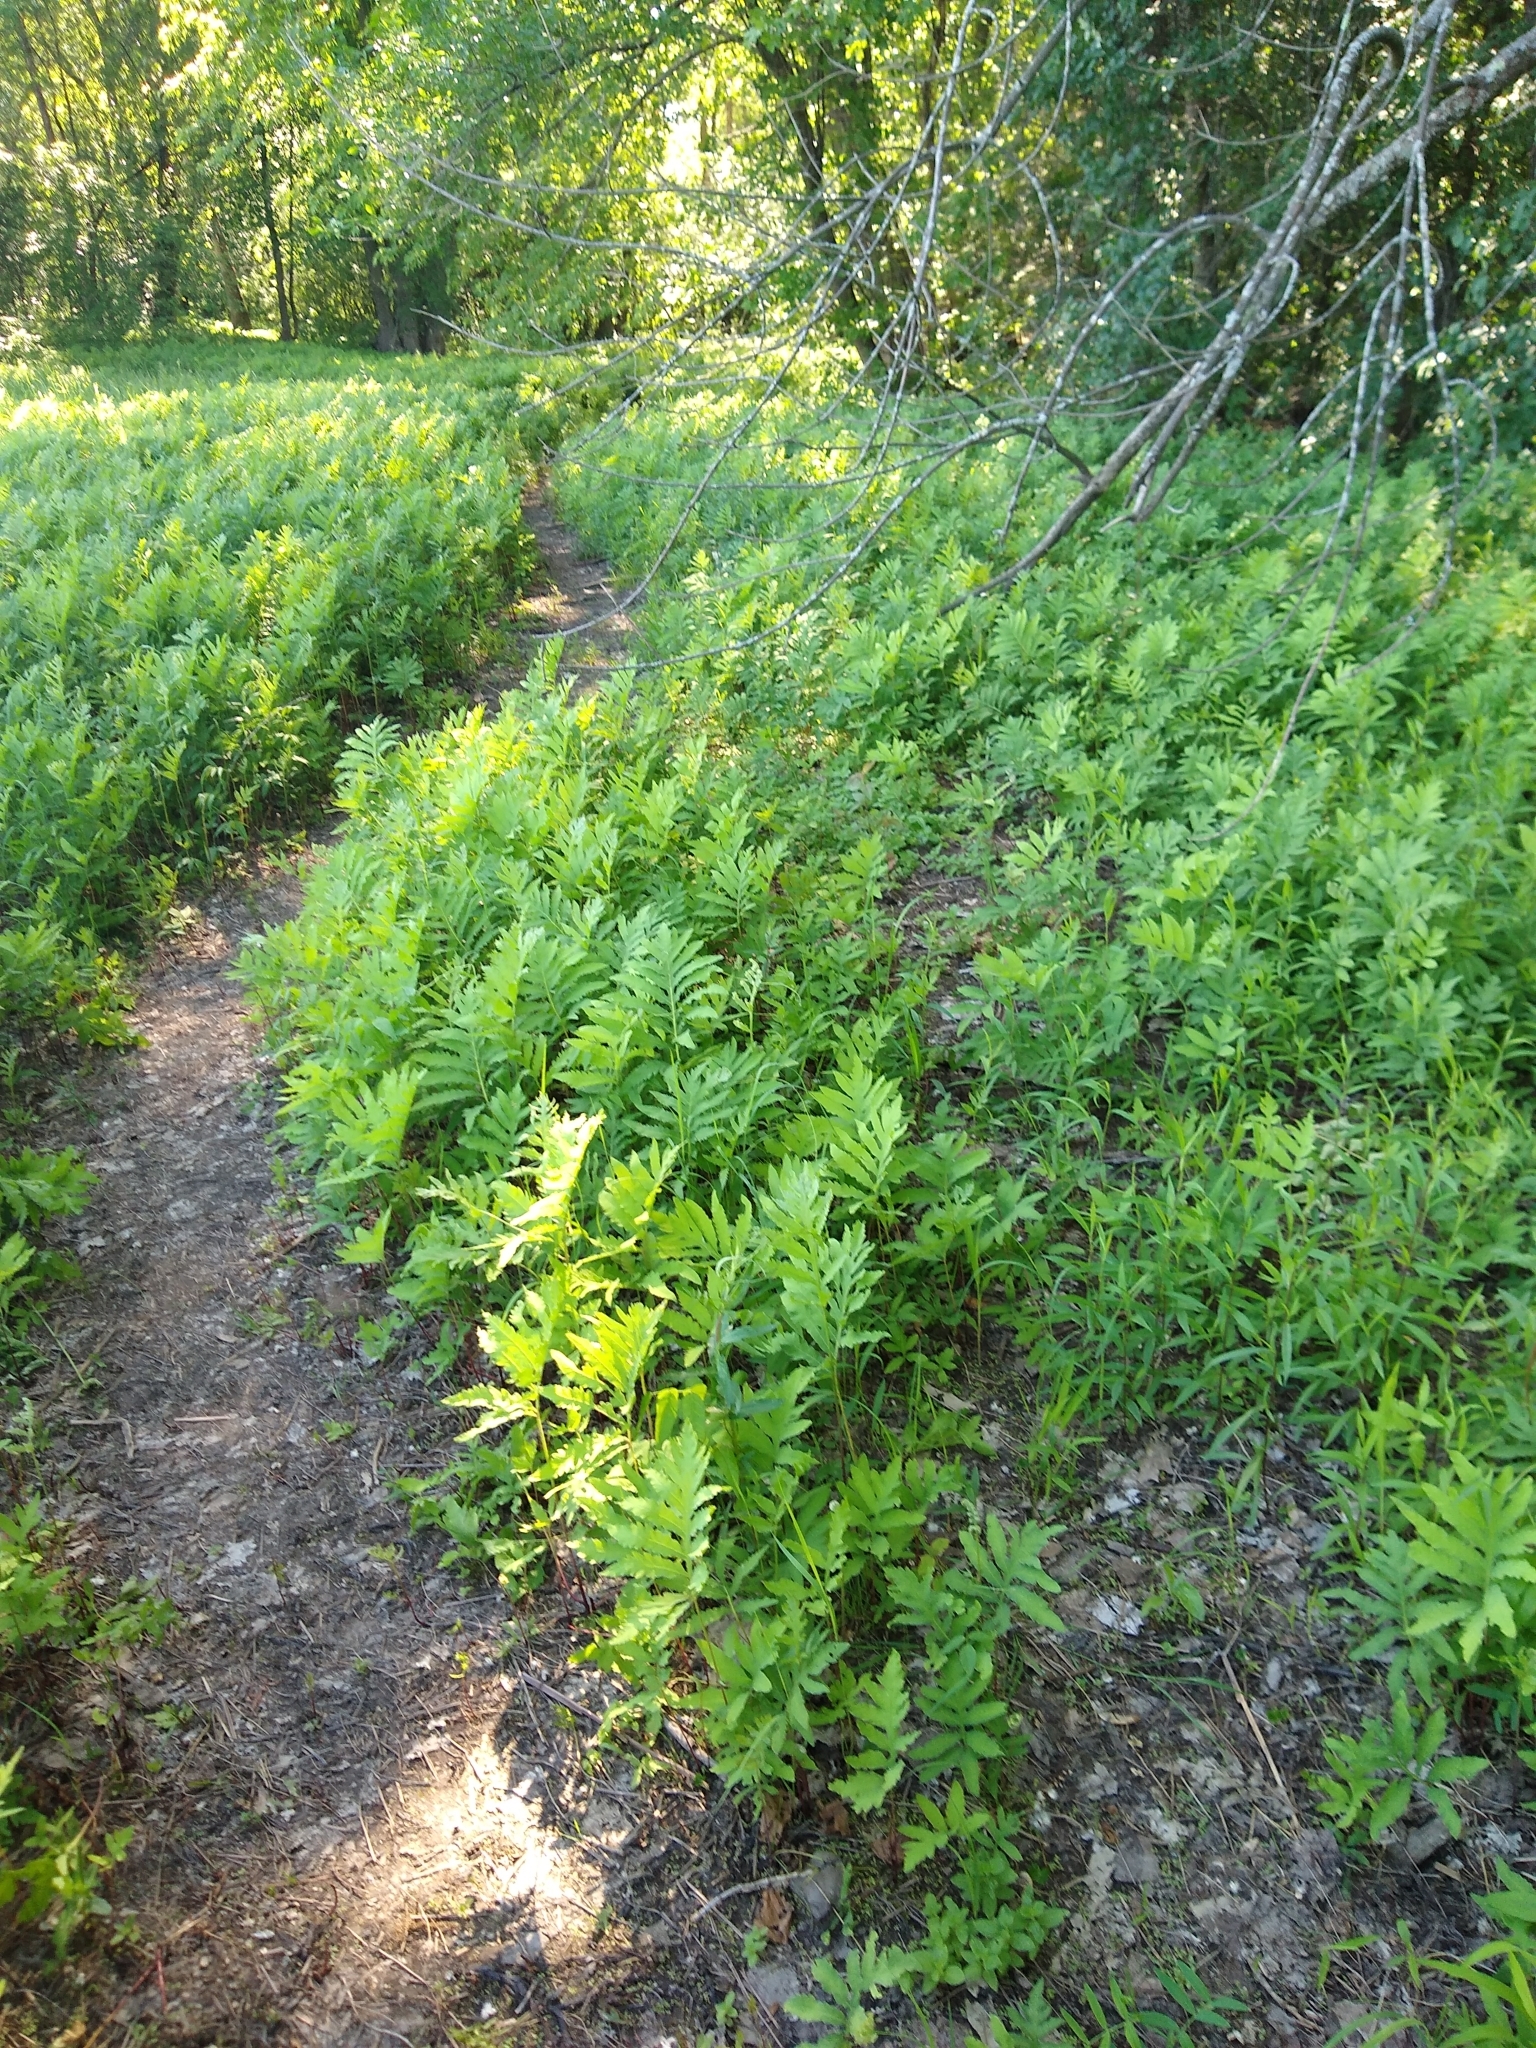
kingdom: Plantae
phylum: Tracheophyta
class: Polypodiopsida
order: Polypodiales
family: Onocleaceae
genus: Onoclea
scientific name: Onoclea sensibilis
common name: Sensitive fern
